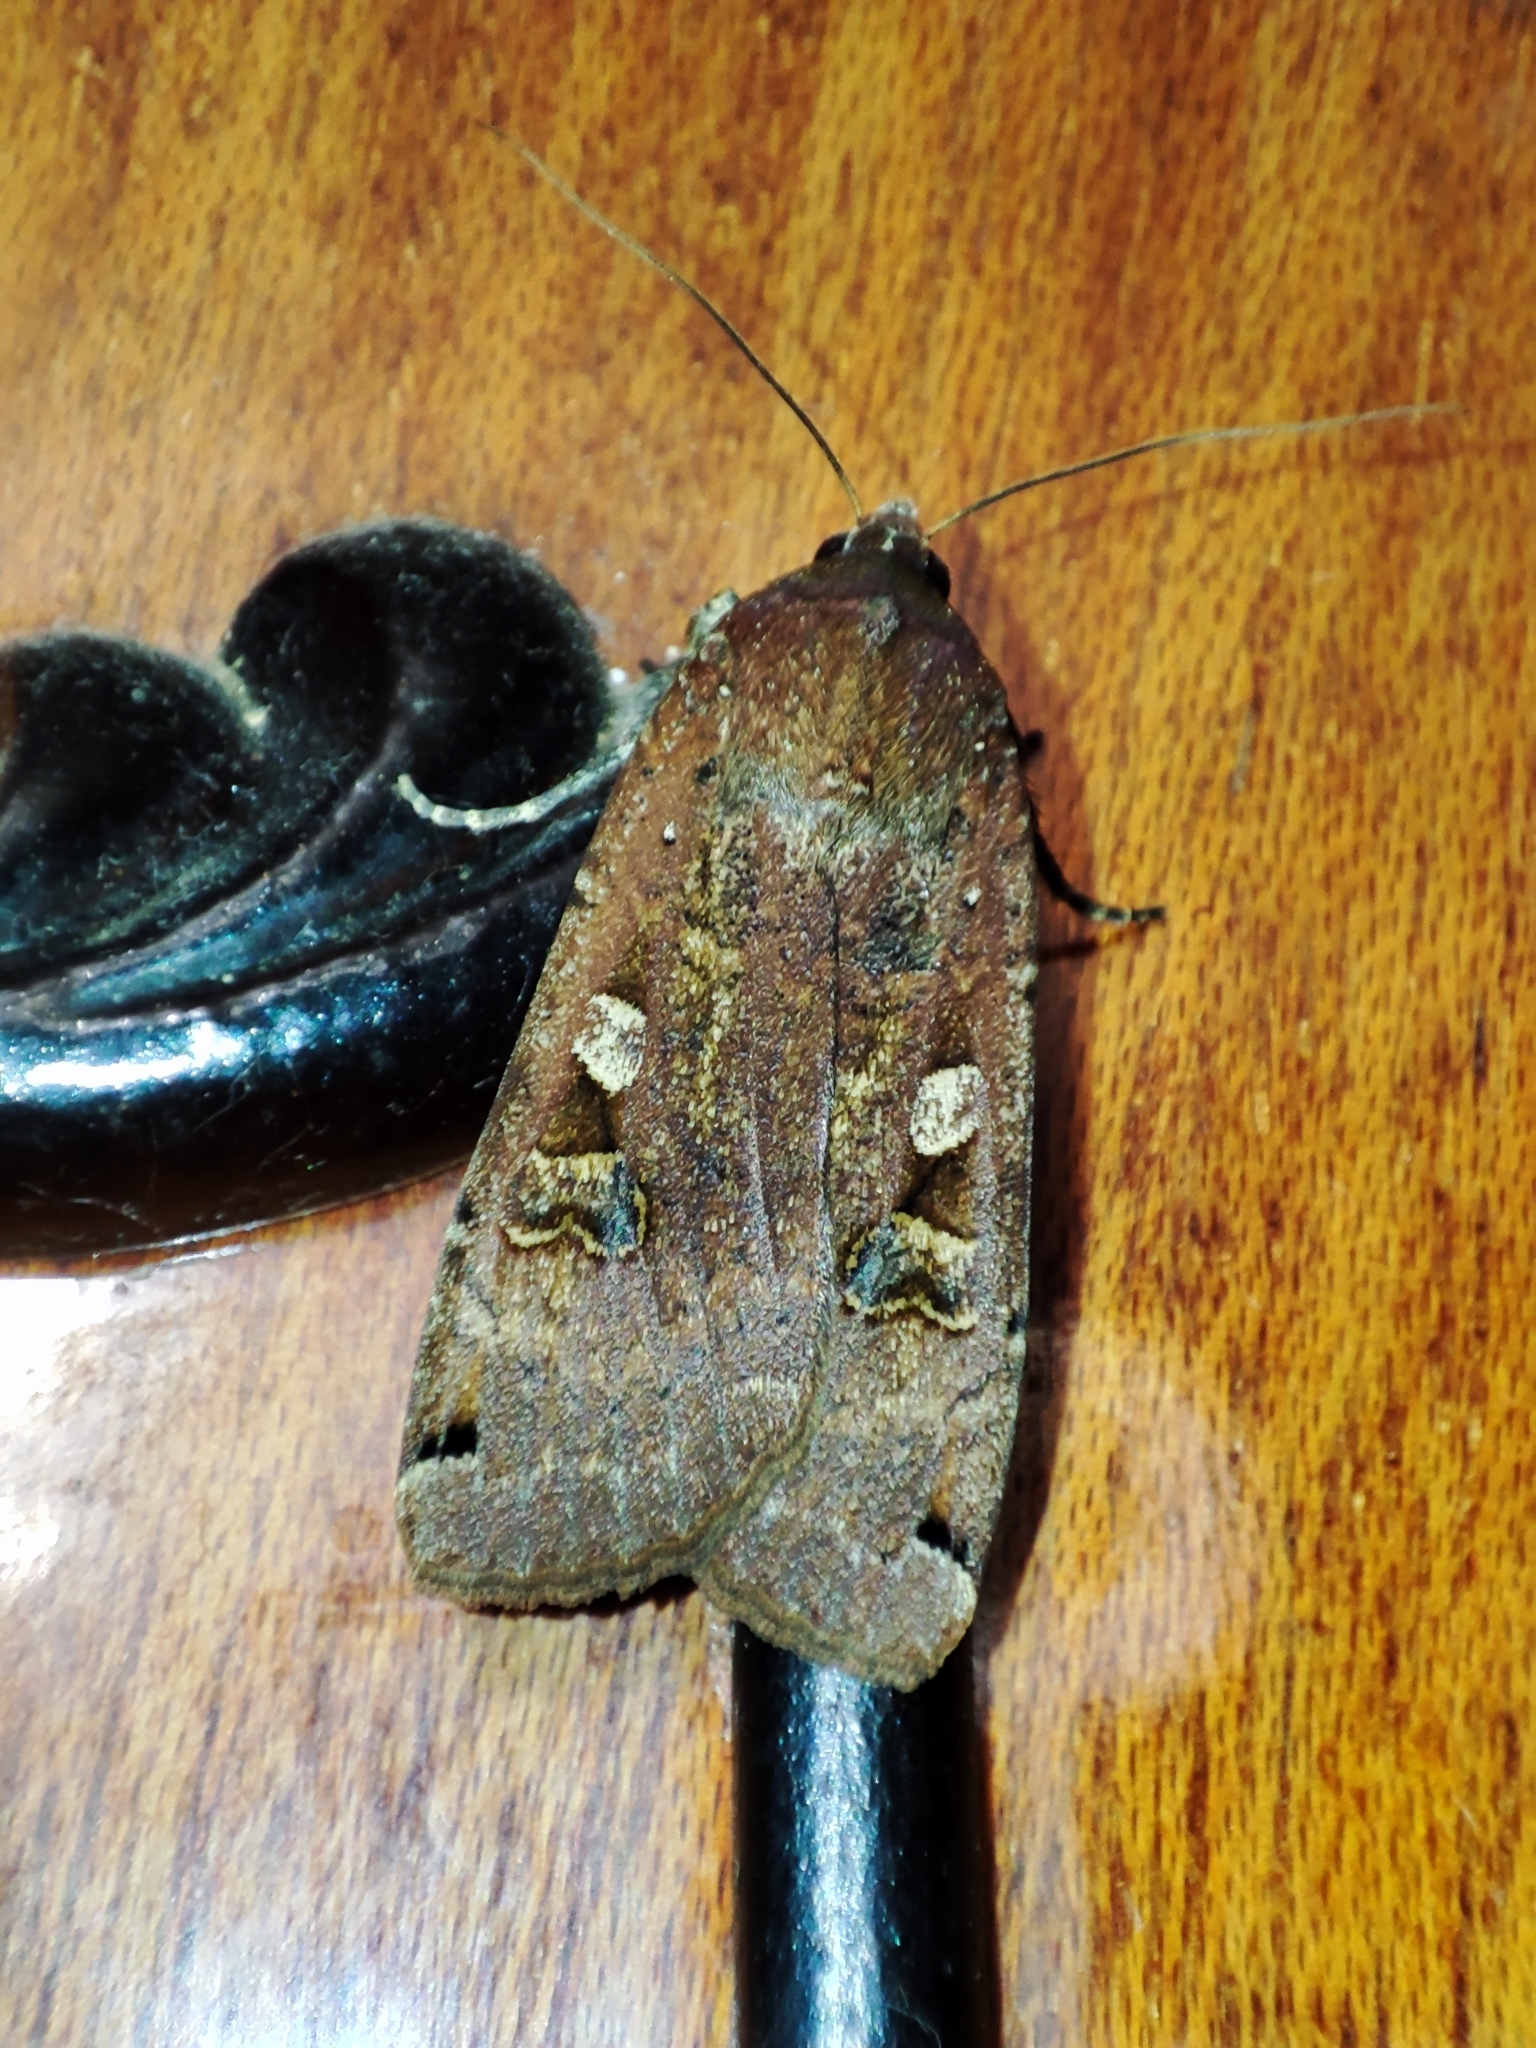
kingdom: Animalia
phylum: Arthropoda
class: Insecta
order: Lepidoptera
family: Noctuidae
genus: Noctua
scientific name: Noctua pronuba
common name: Large yellow underwing
